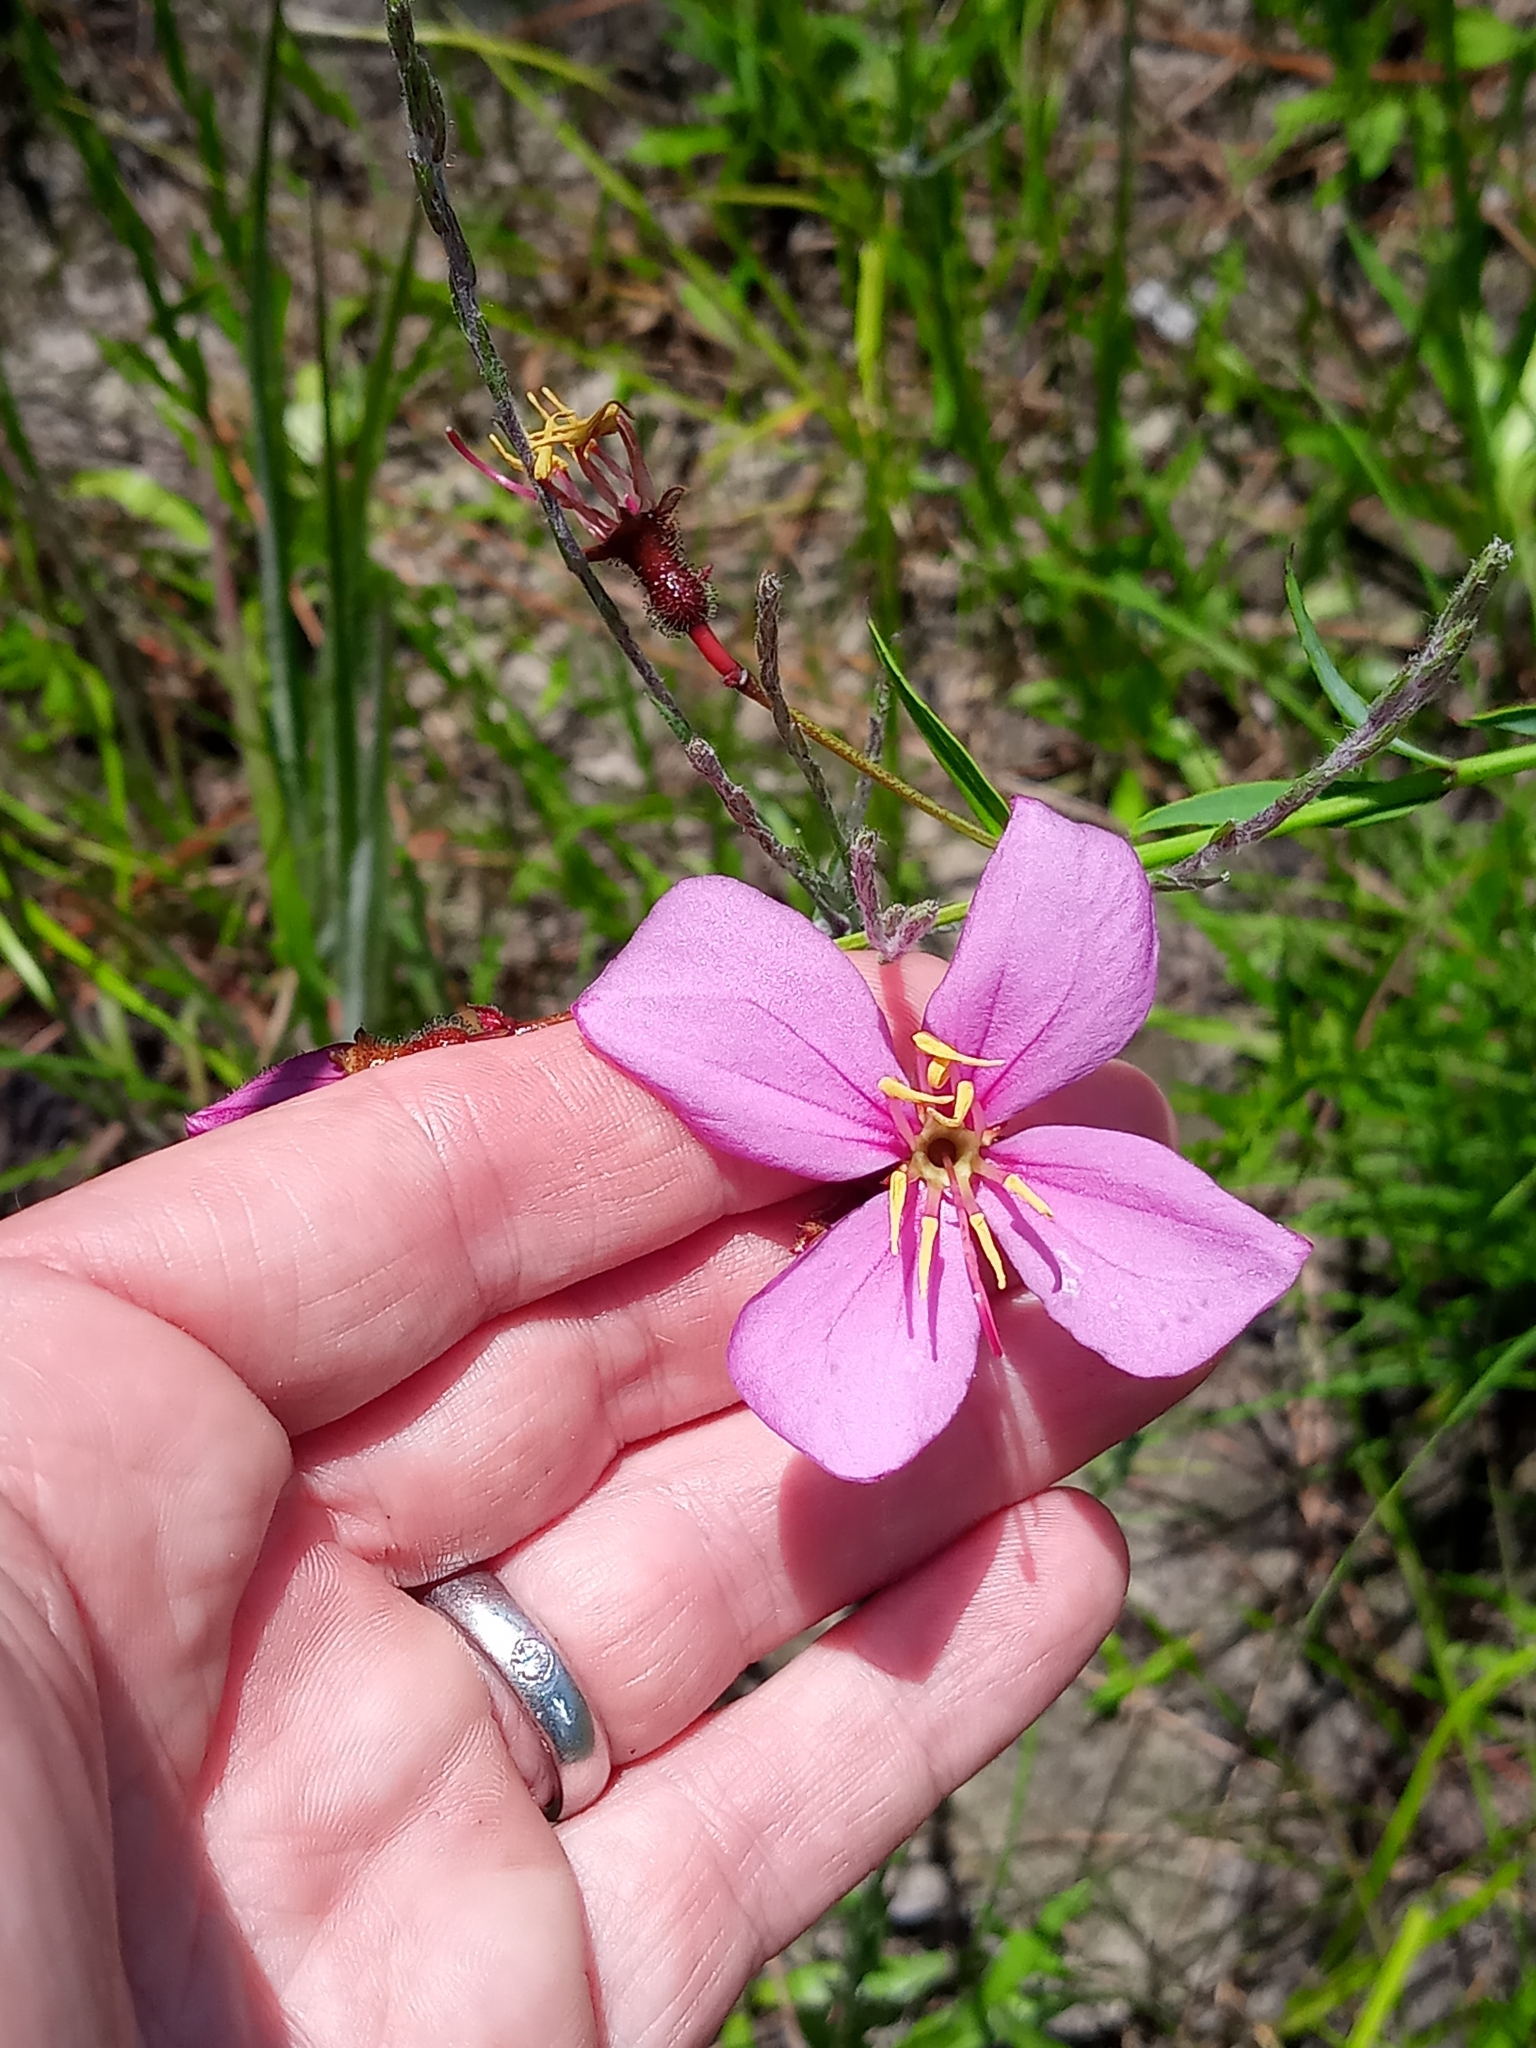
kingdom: Plantae
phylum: Tracheophyta
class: Magnoliopsida
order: Myrtales
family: Melastomataceae
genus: Rhexia
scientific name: Rhexia alifanus
